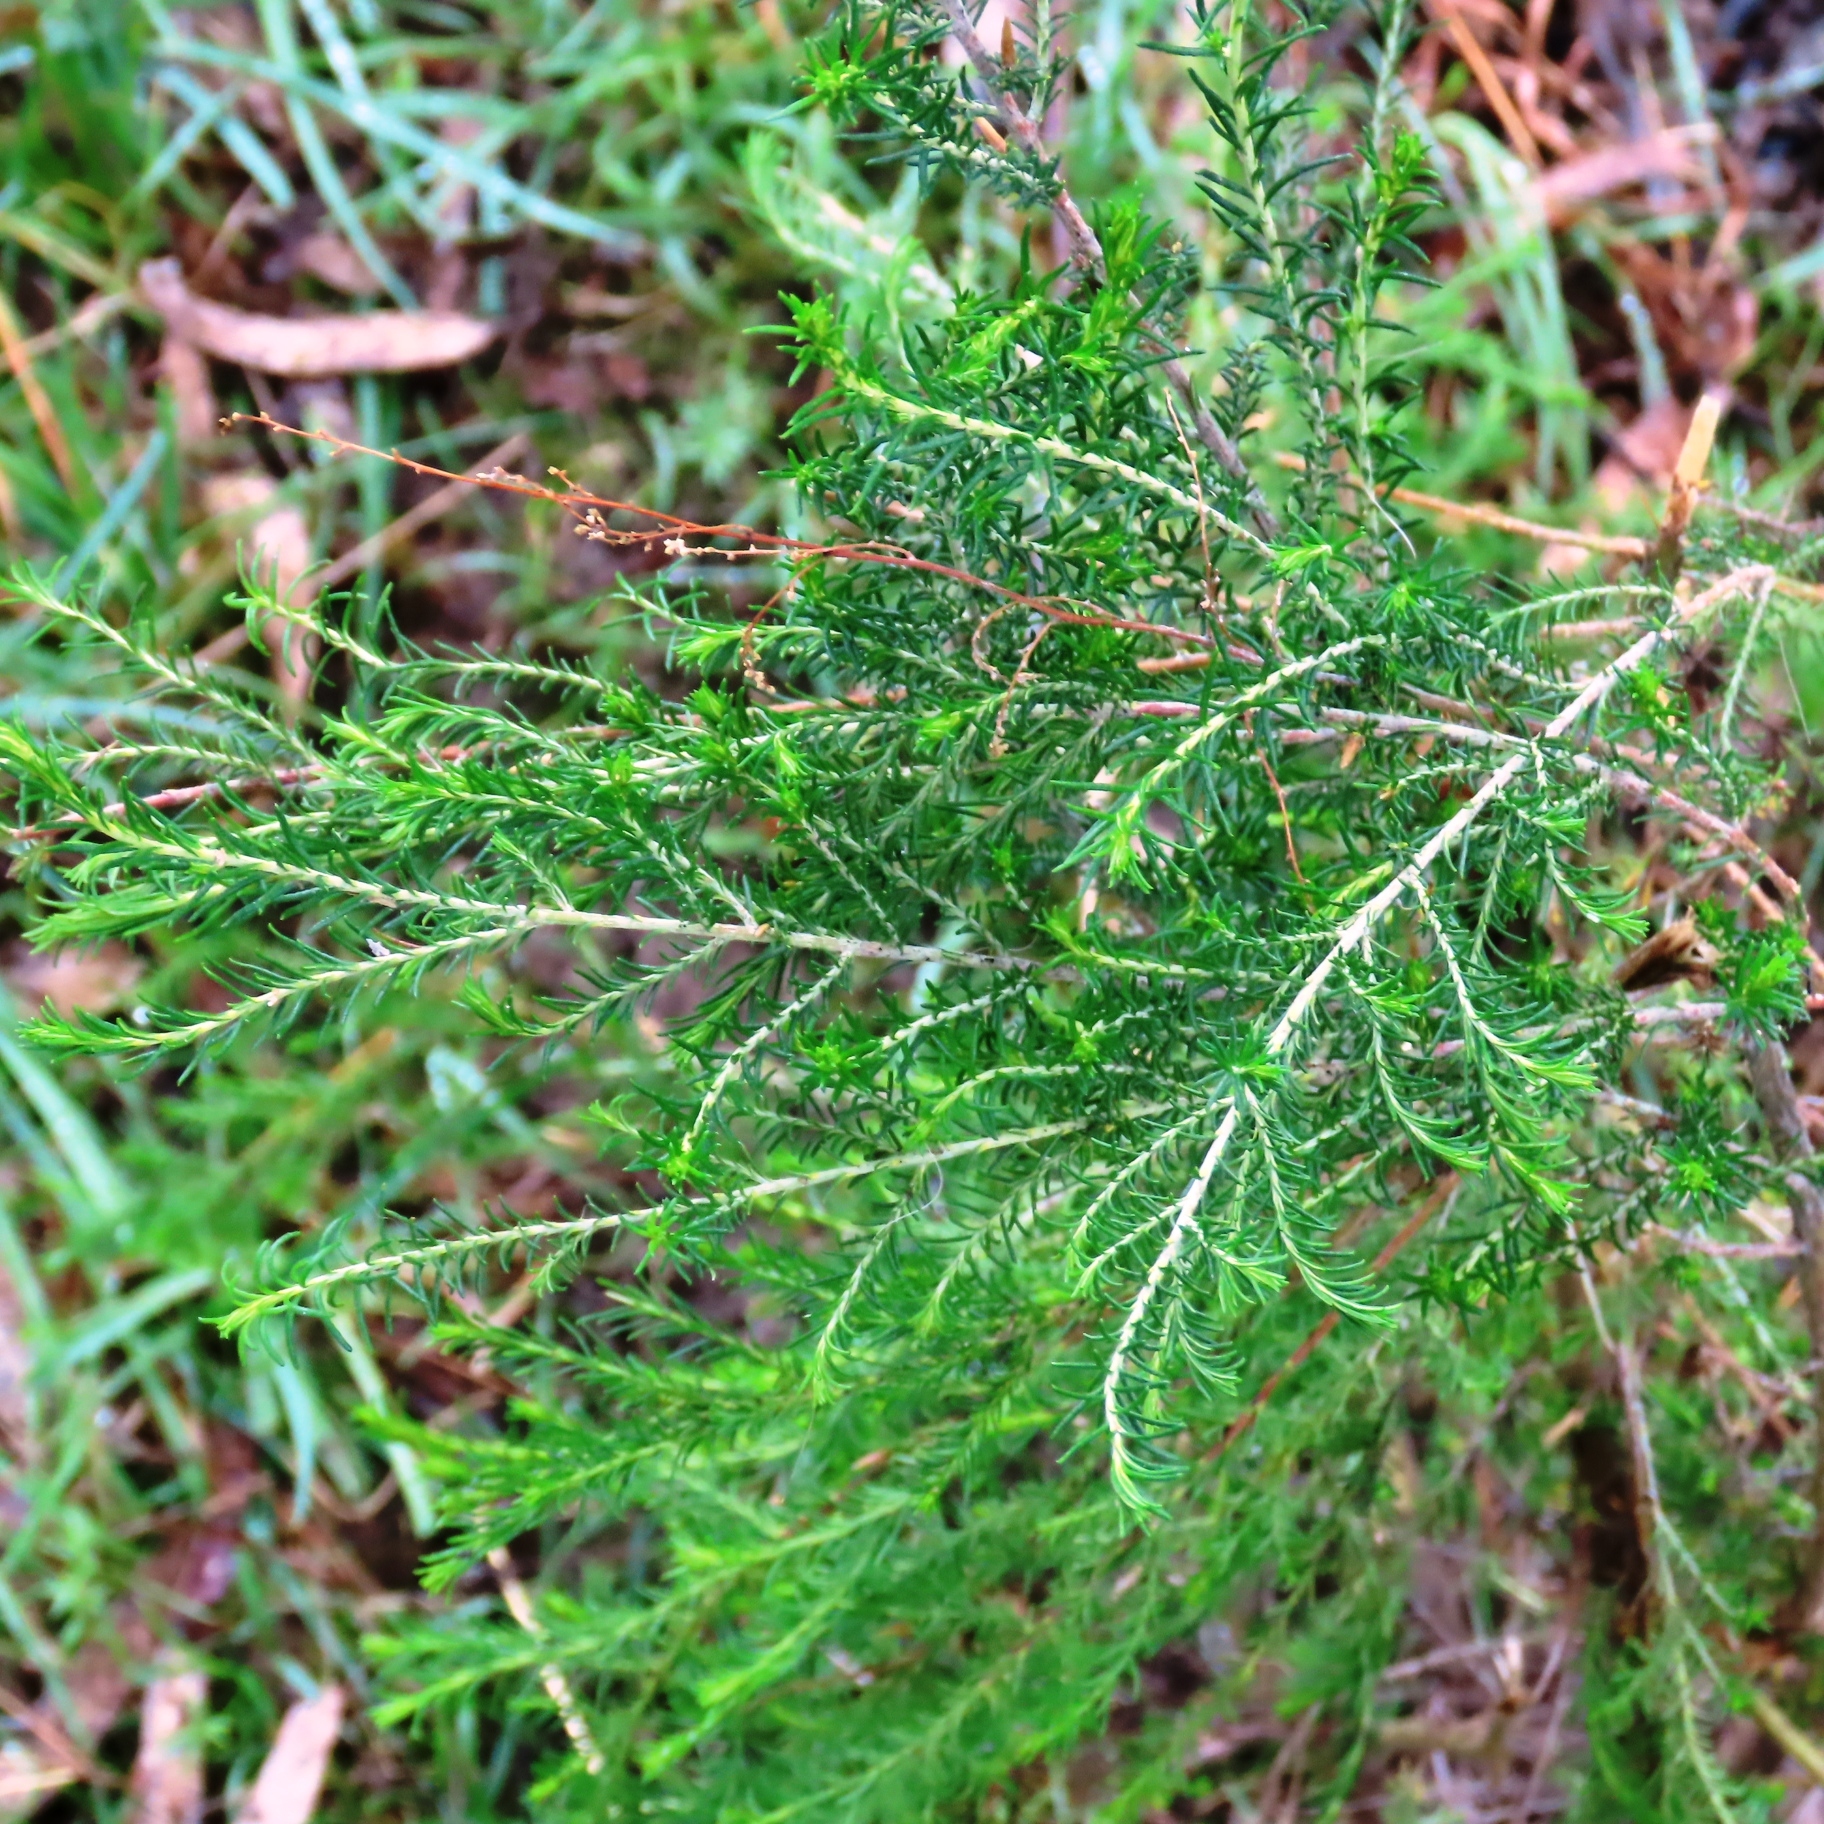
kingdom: Plantae
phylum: Tracheophyta
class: Magnoliopsida
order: Asterales
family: Asteraceae
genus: Cassinia
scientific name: Cassinia sifton
